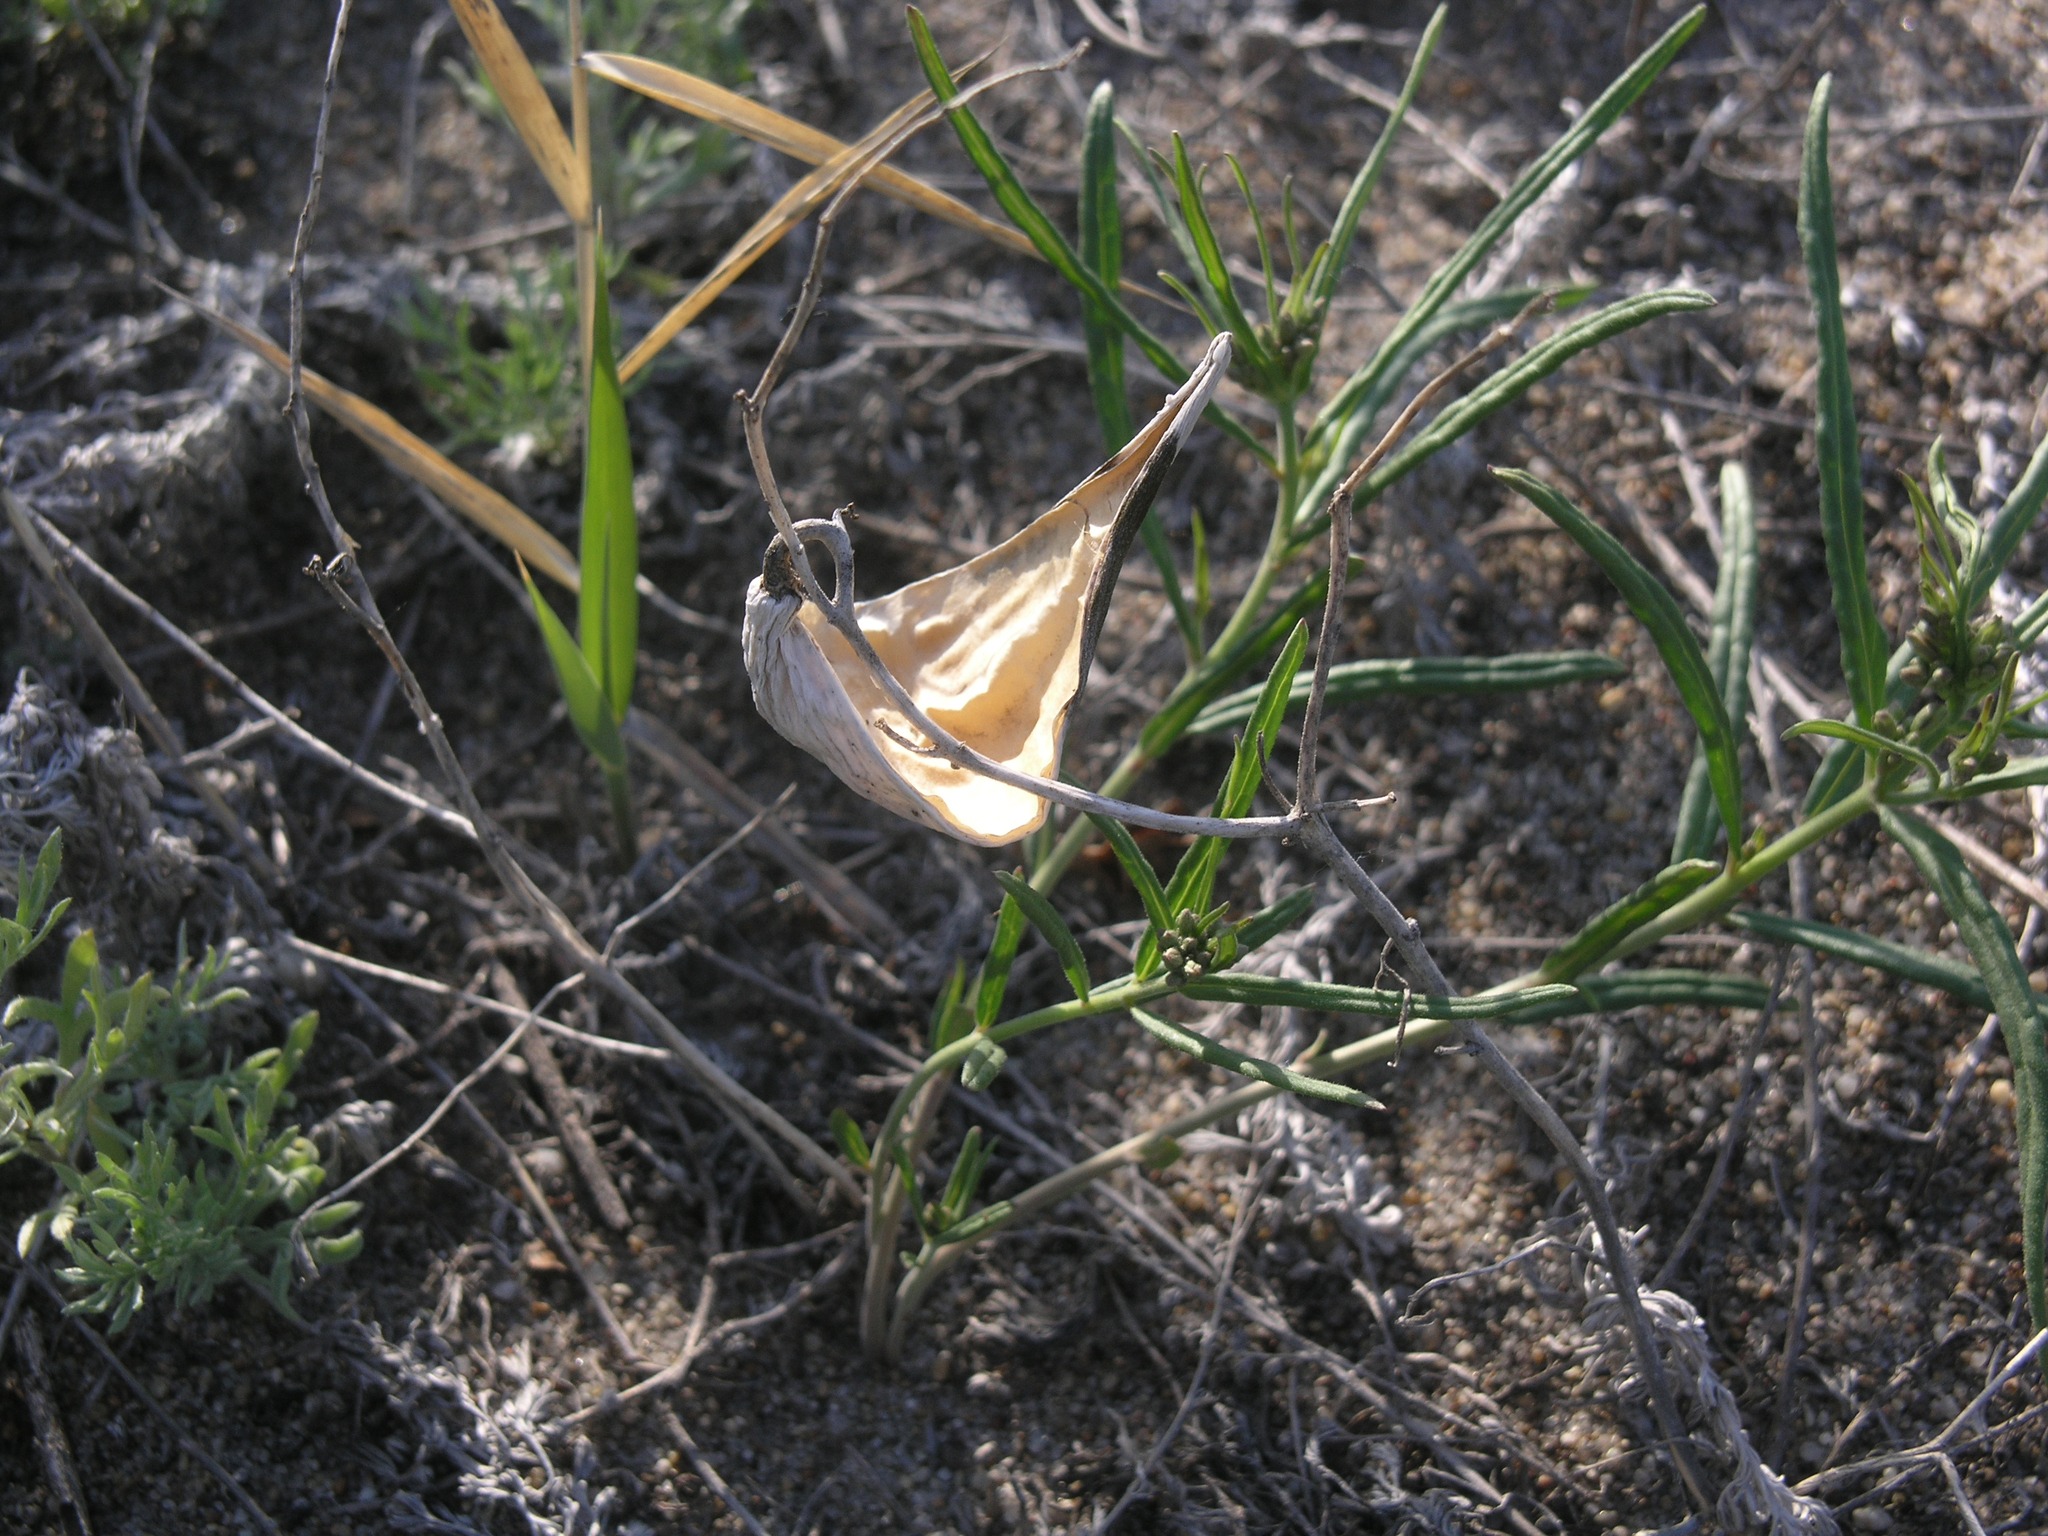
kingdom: Plantae
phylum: Tracheophyta
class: Magnoliopsida
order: Gentianales
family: Apocynaceae
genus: Cynanchum
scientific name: Cynanchum thesioides
